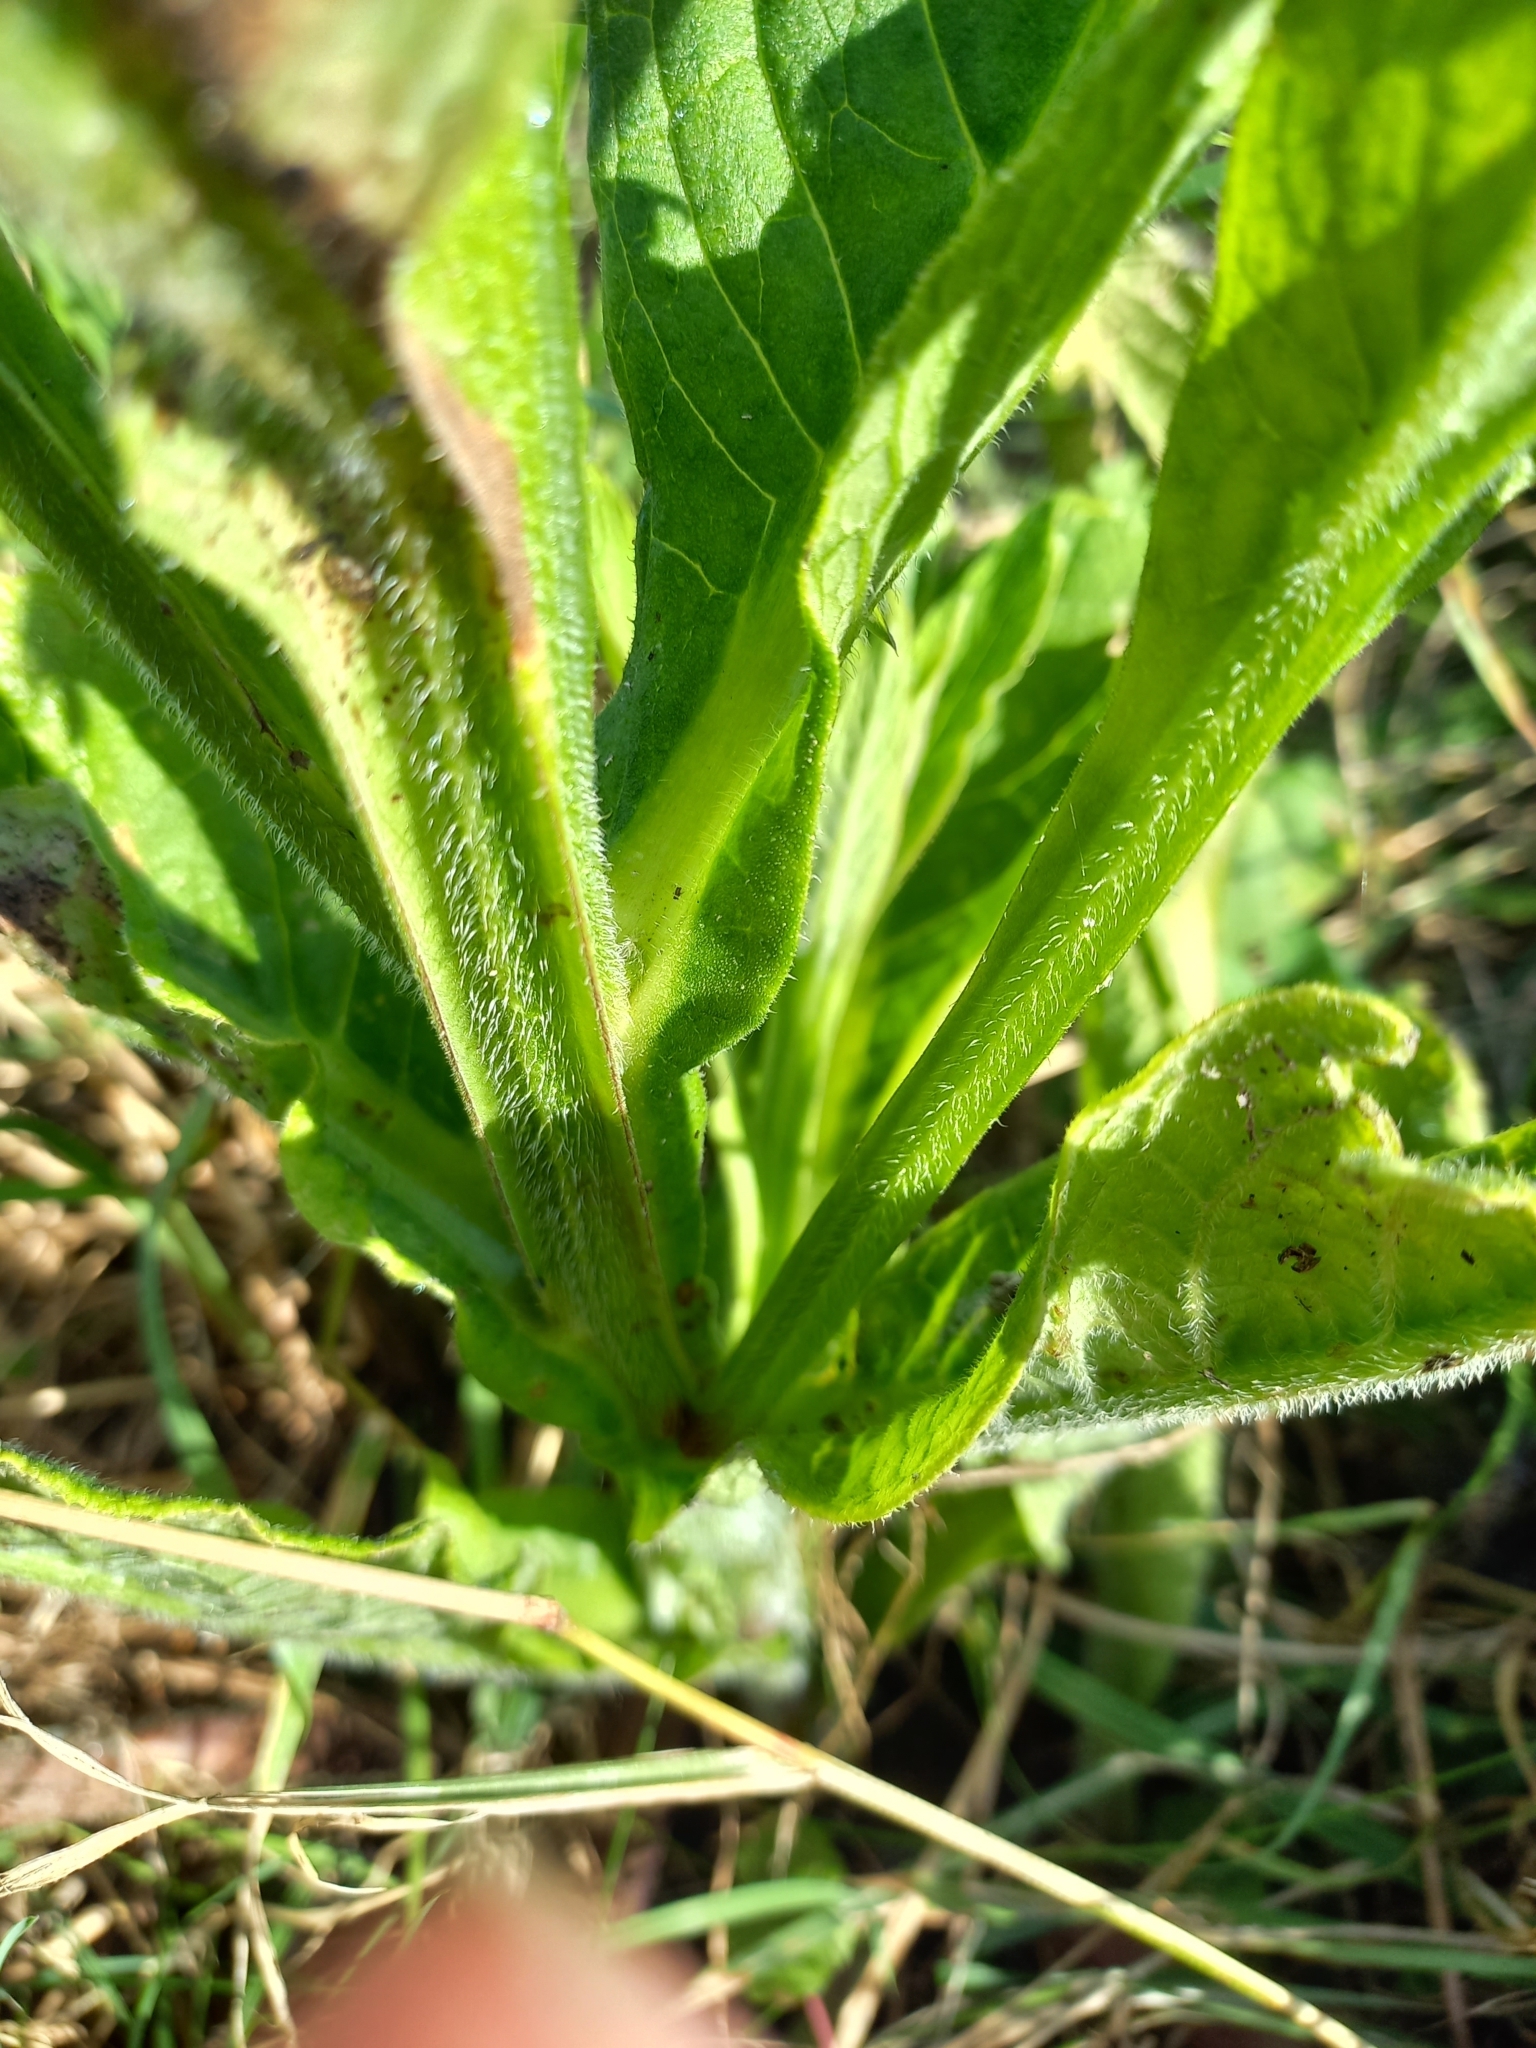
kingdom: Plantae
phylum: Tracheophyta
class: Magnoliopsida
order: Boraginales
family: Boraginaceae
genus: Symphytum
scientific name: Symphytum officinale
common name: Common comfrey
